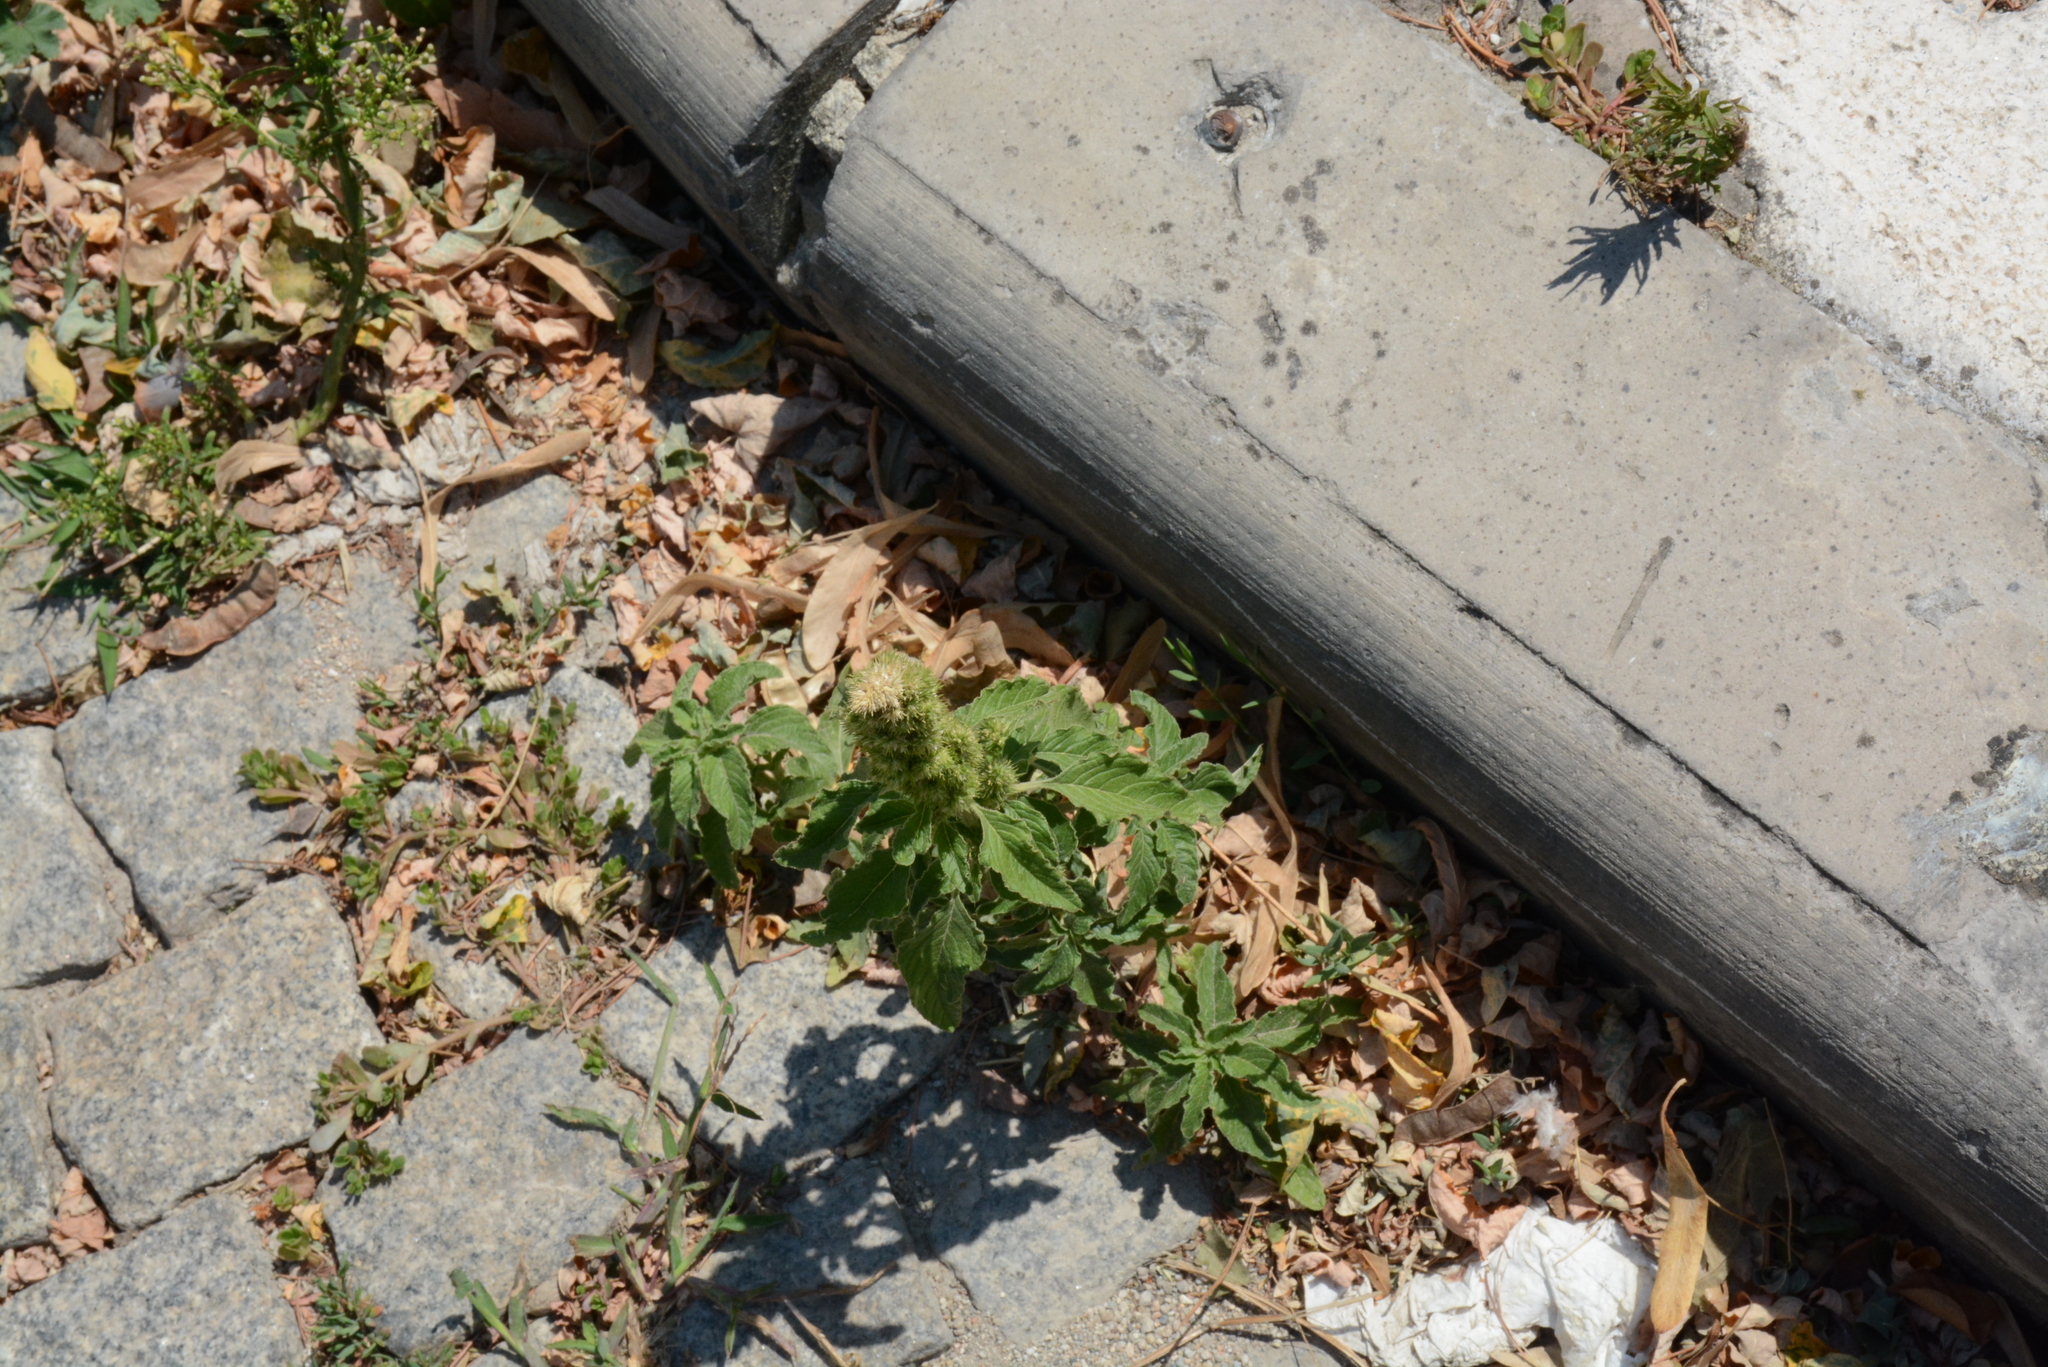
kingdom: Plantae
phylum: Tracheophyta
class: Magnoliopsida
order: Caryophyllales
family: Amaranthaceae
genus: Amaranthus
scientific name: Amaranthus retroflexus
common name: Redroot amaranth
